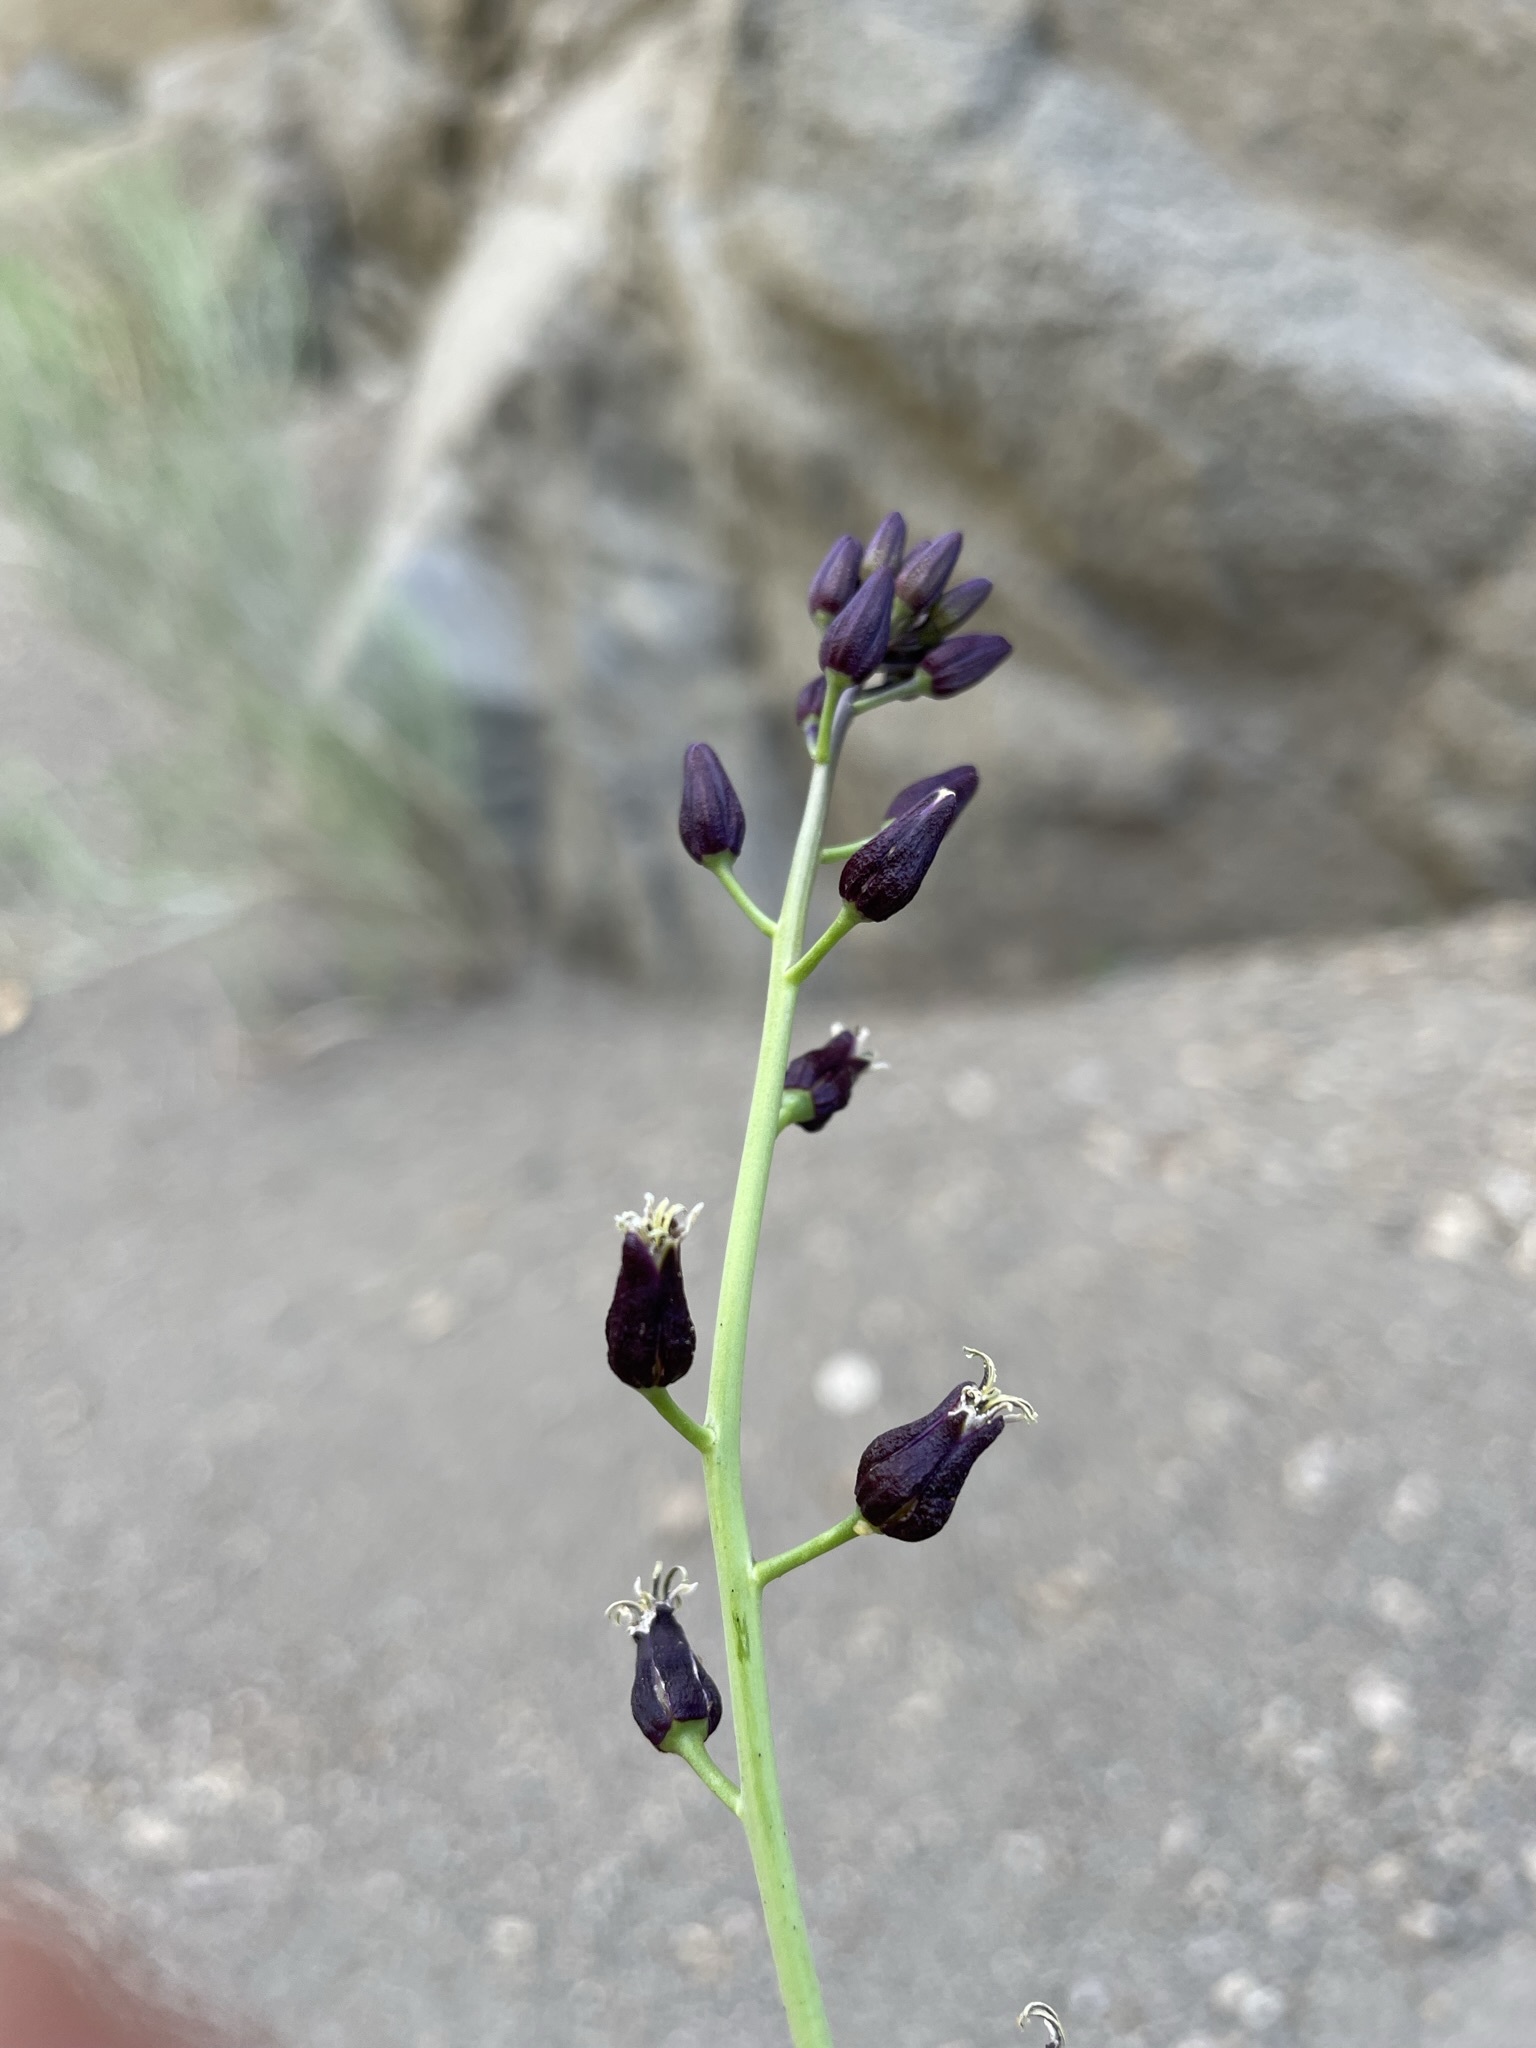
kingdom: Plantae
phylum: Tracheophyta
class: Magnoliopsida
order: Brassicales
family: Brassicaceae
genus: Streptanthus
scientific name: Streptanthus pilosus
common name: Chocolate drops
